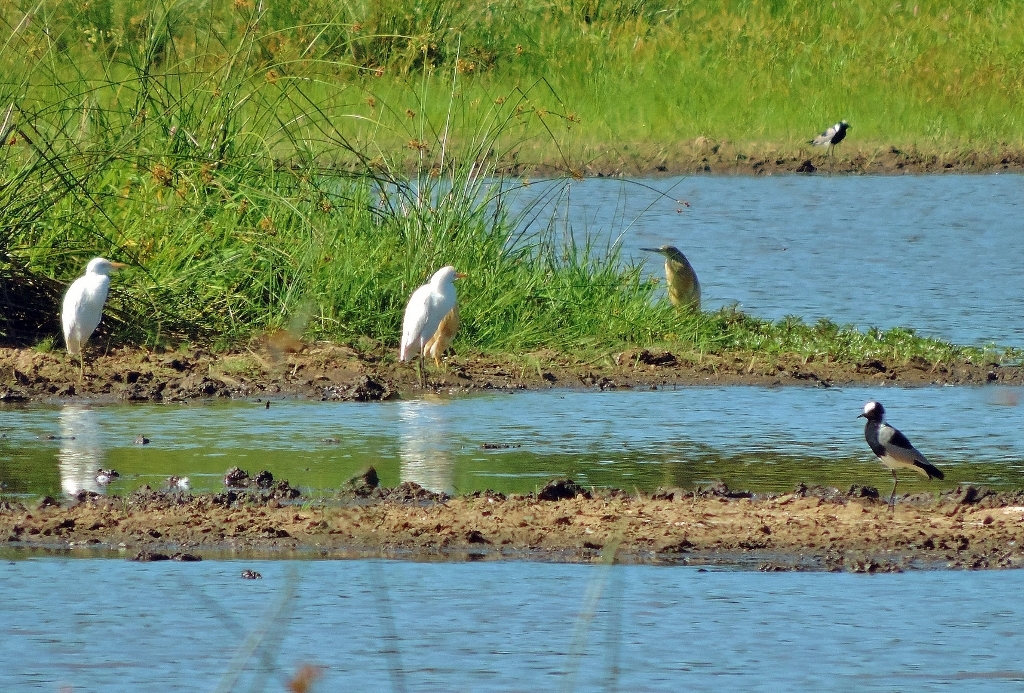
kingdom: Animalia
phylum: Chordata
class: Aves
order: Pelecaniformes
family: Ardeidae
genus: Bubulcus
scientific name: Bubulcus ibis
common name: Cattle egret
